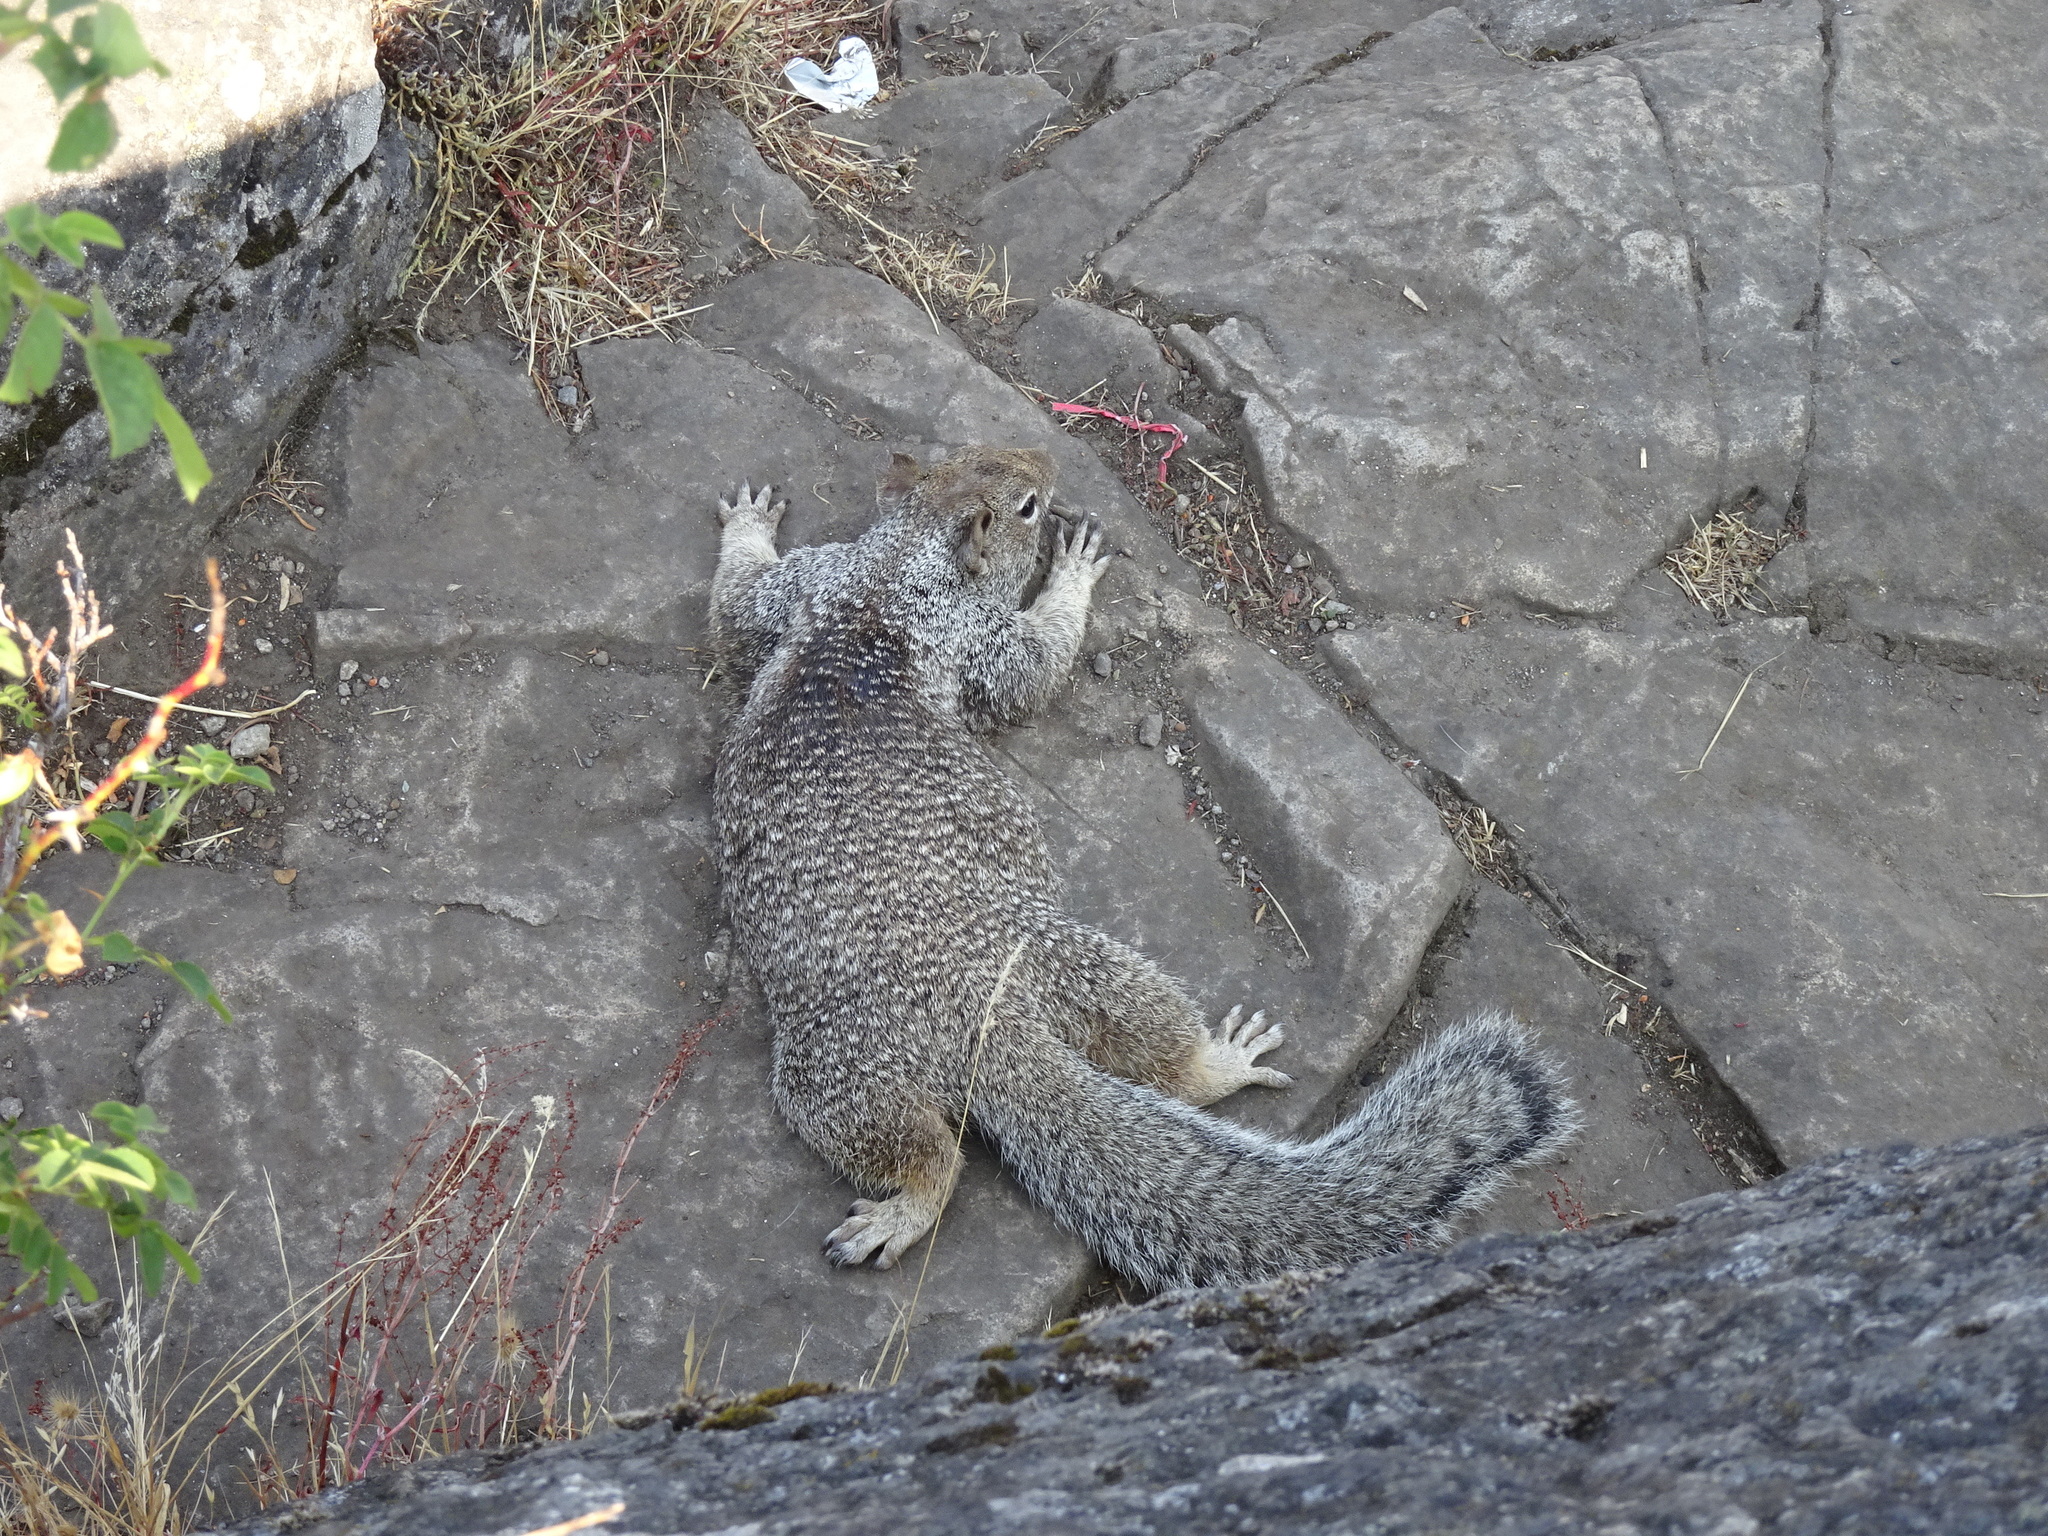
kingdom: Animalia
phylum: Chordata
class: Mammalia
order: Rodentia
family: Sciuridae
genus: Otospermophilus
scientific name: Otospermophilus beecheyi
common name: California ground squirrel
